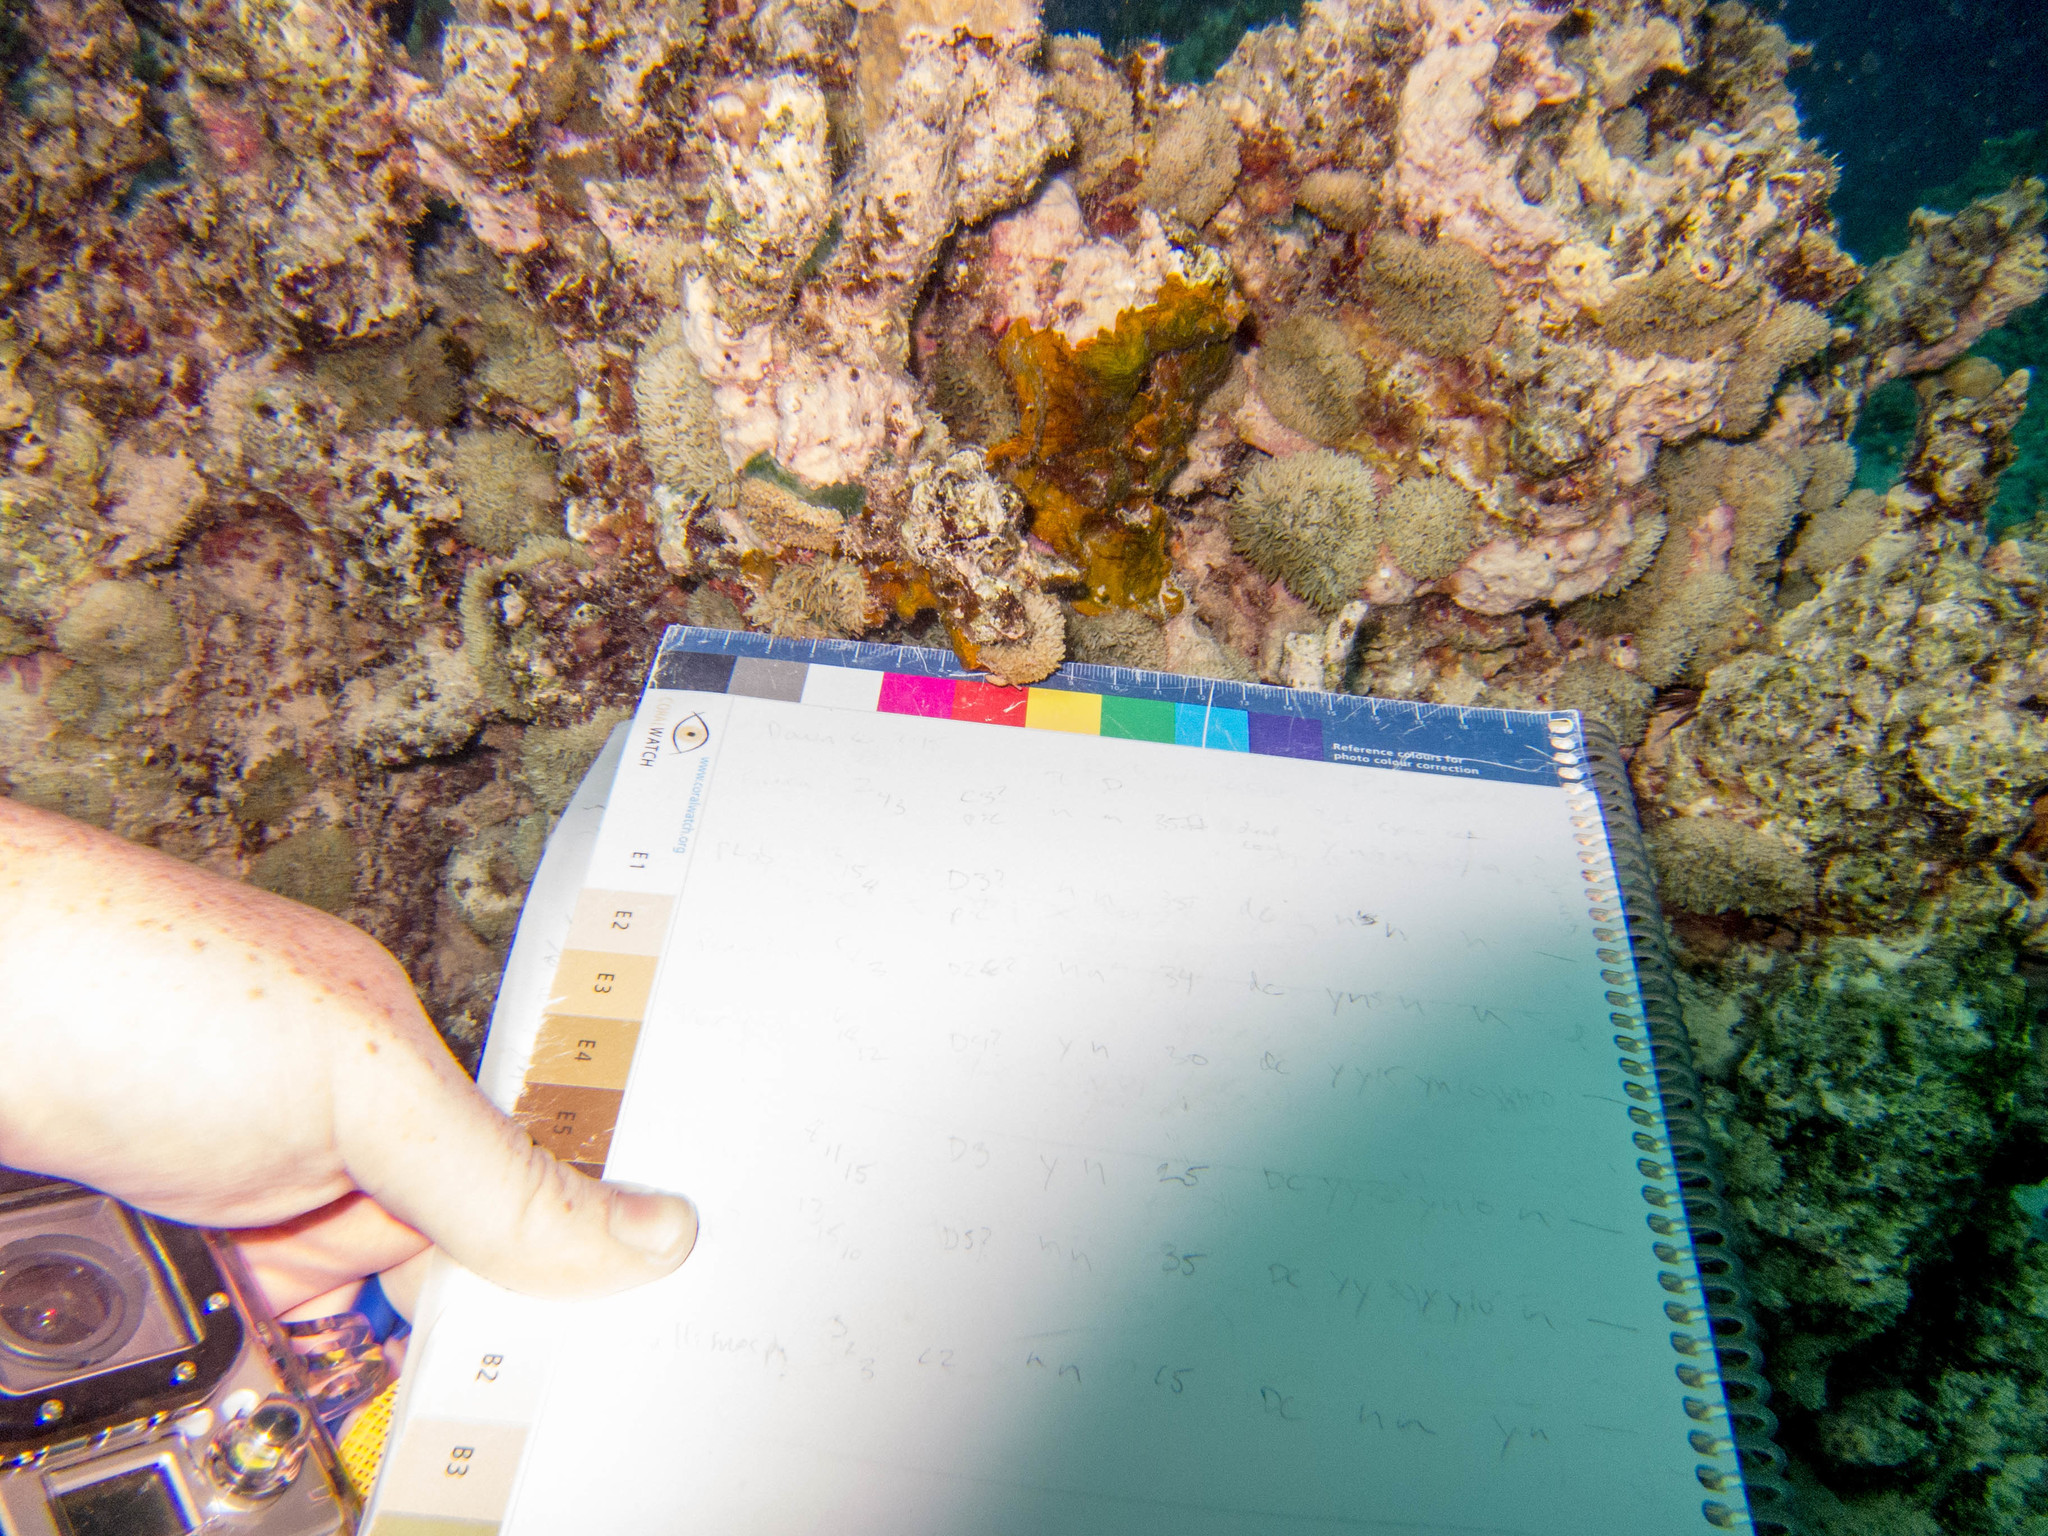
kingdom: Animalia
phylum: Cnidaria
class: Anthozoa
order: Corallimorpharia
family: Discosomidae
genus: Rhodactis
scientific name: Rhodactis rhodostoma
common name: Red-mouth mushroom anemone
